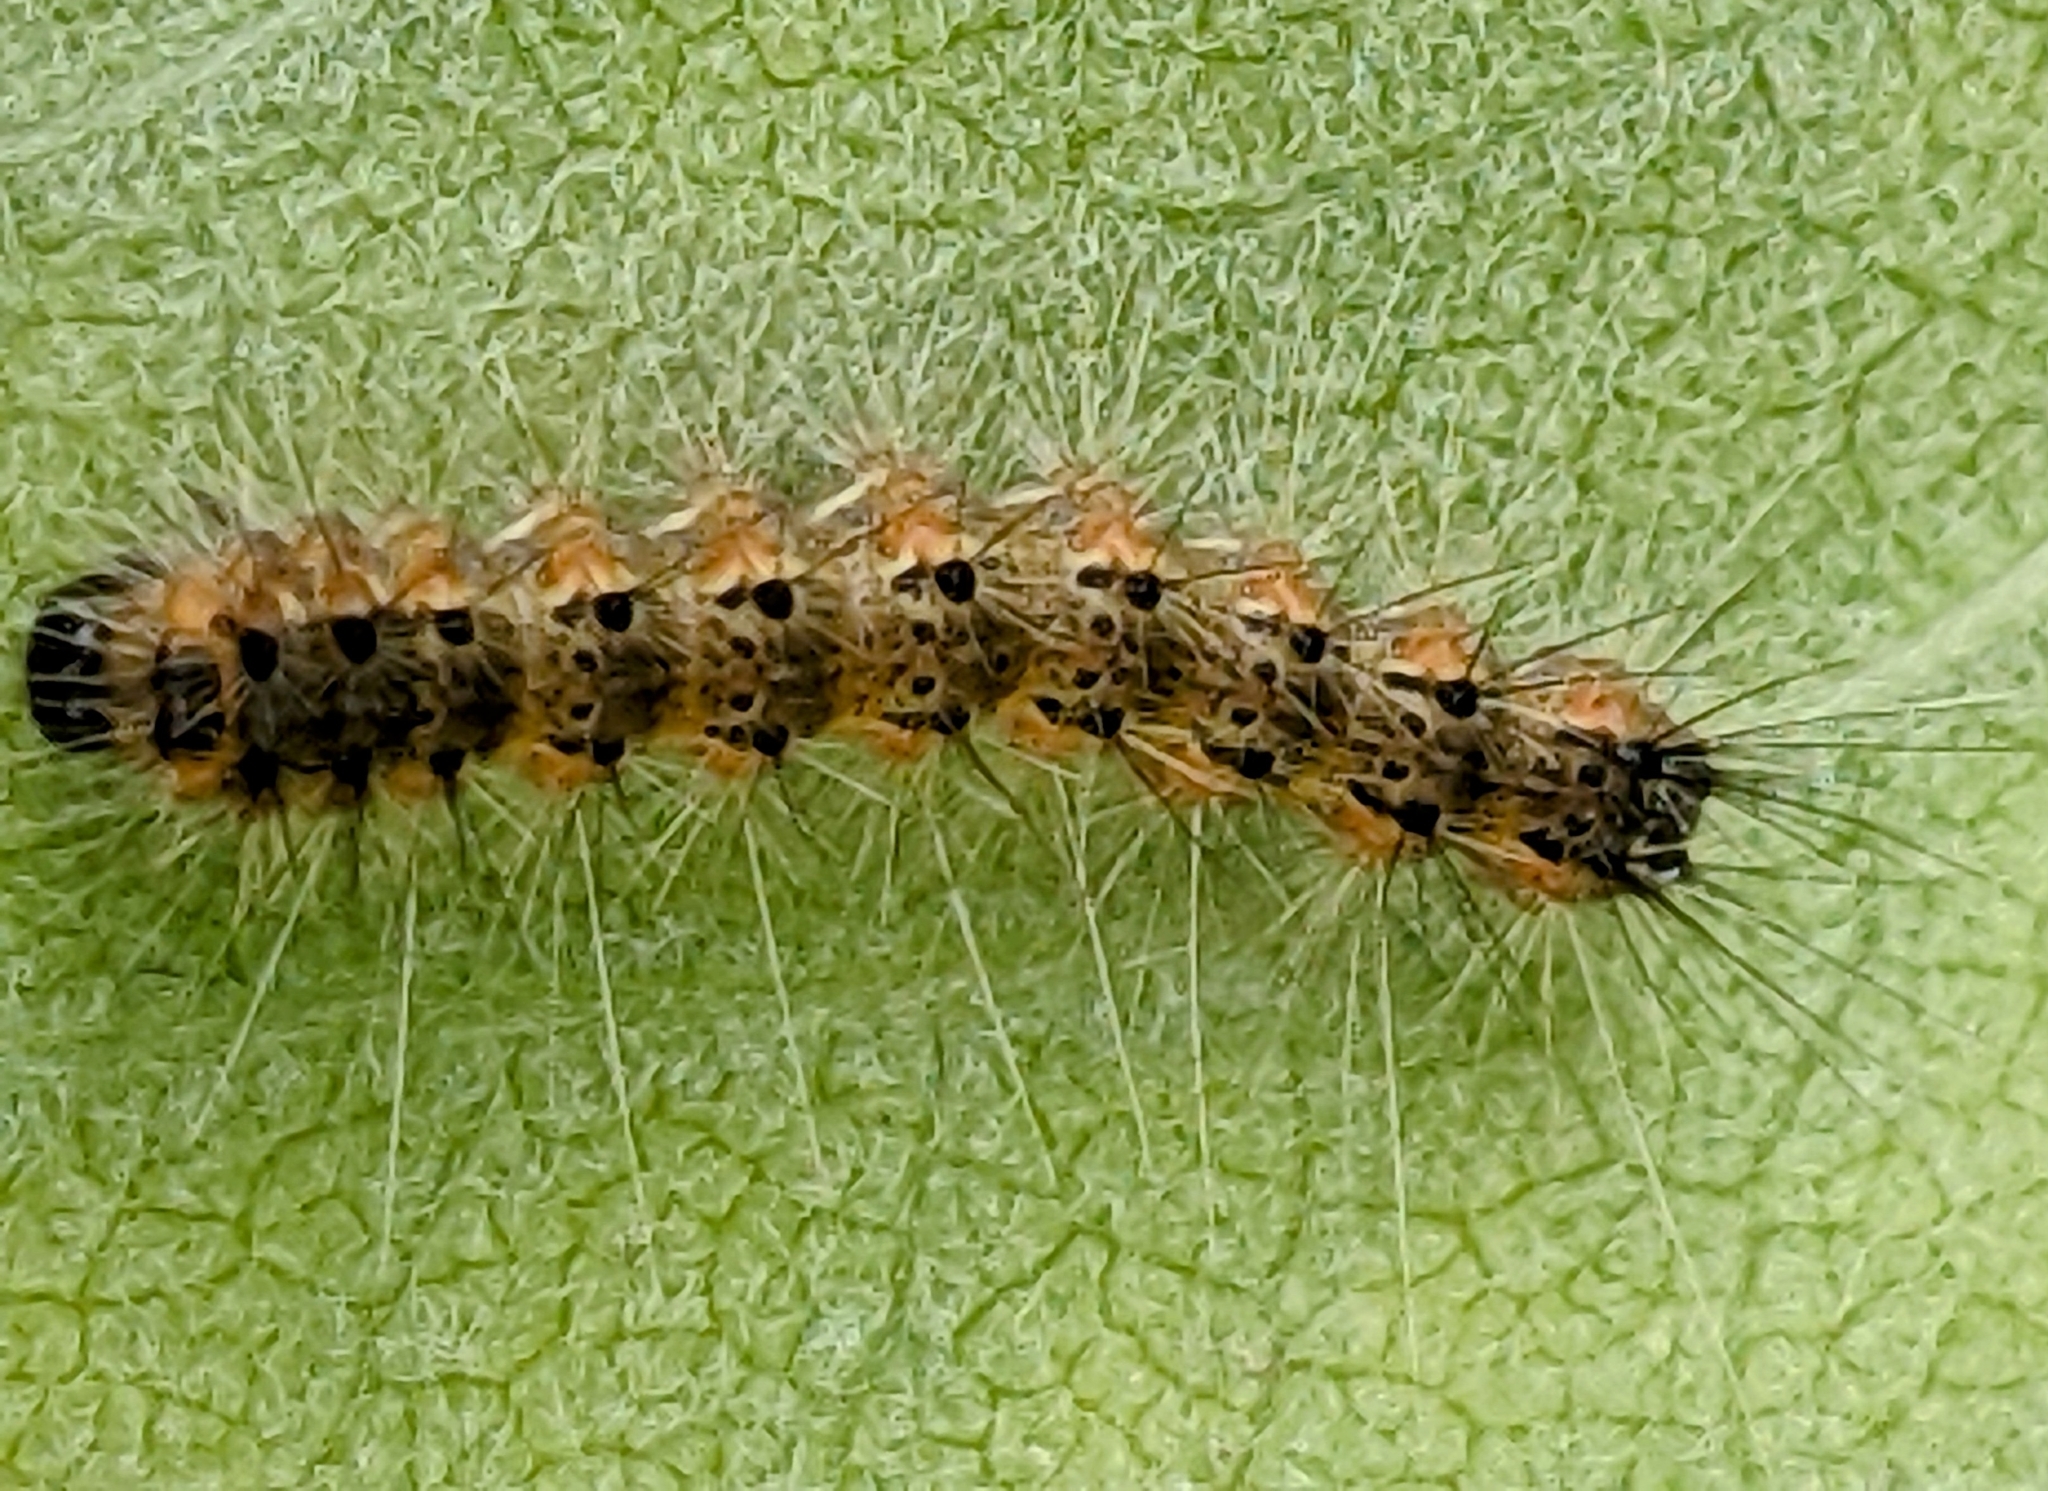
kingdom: Animalia
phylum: Arthropoda
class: Insecta
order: Lepidoptera
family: Erebidae
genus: Hyphantria
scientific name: Hyphantria cunea
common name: American white moth
